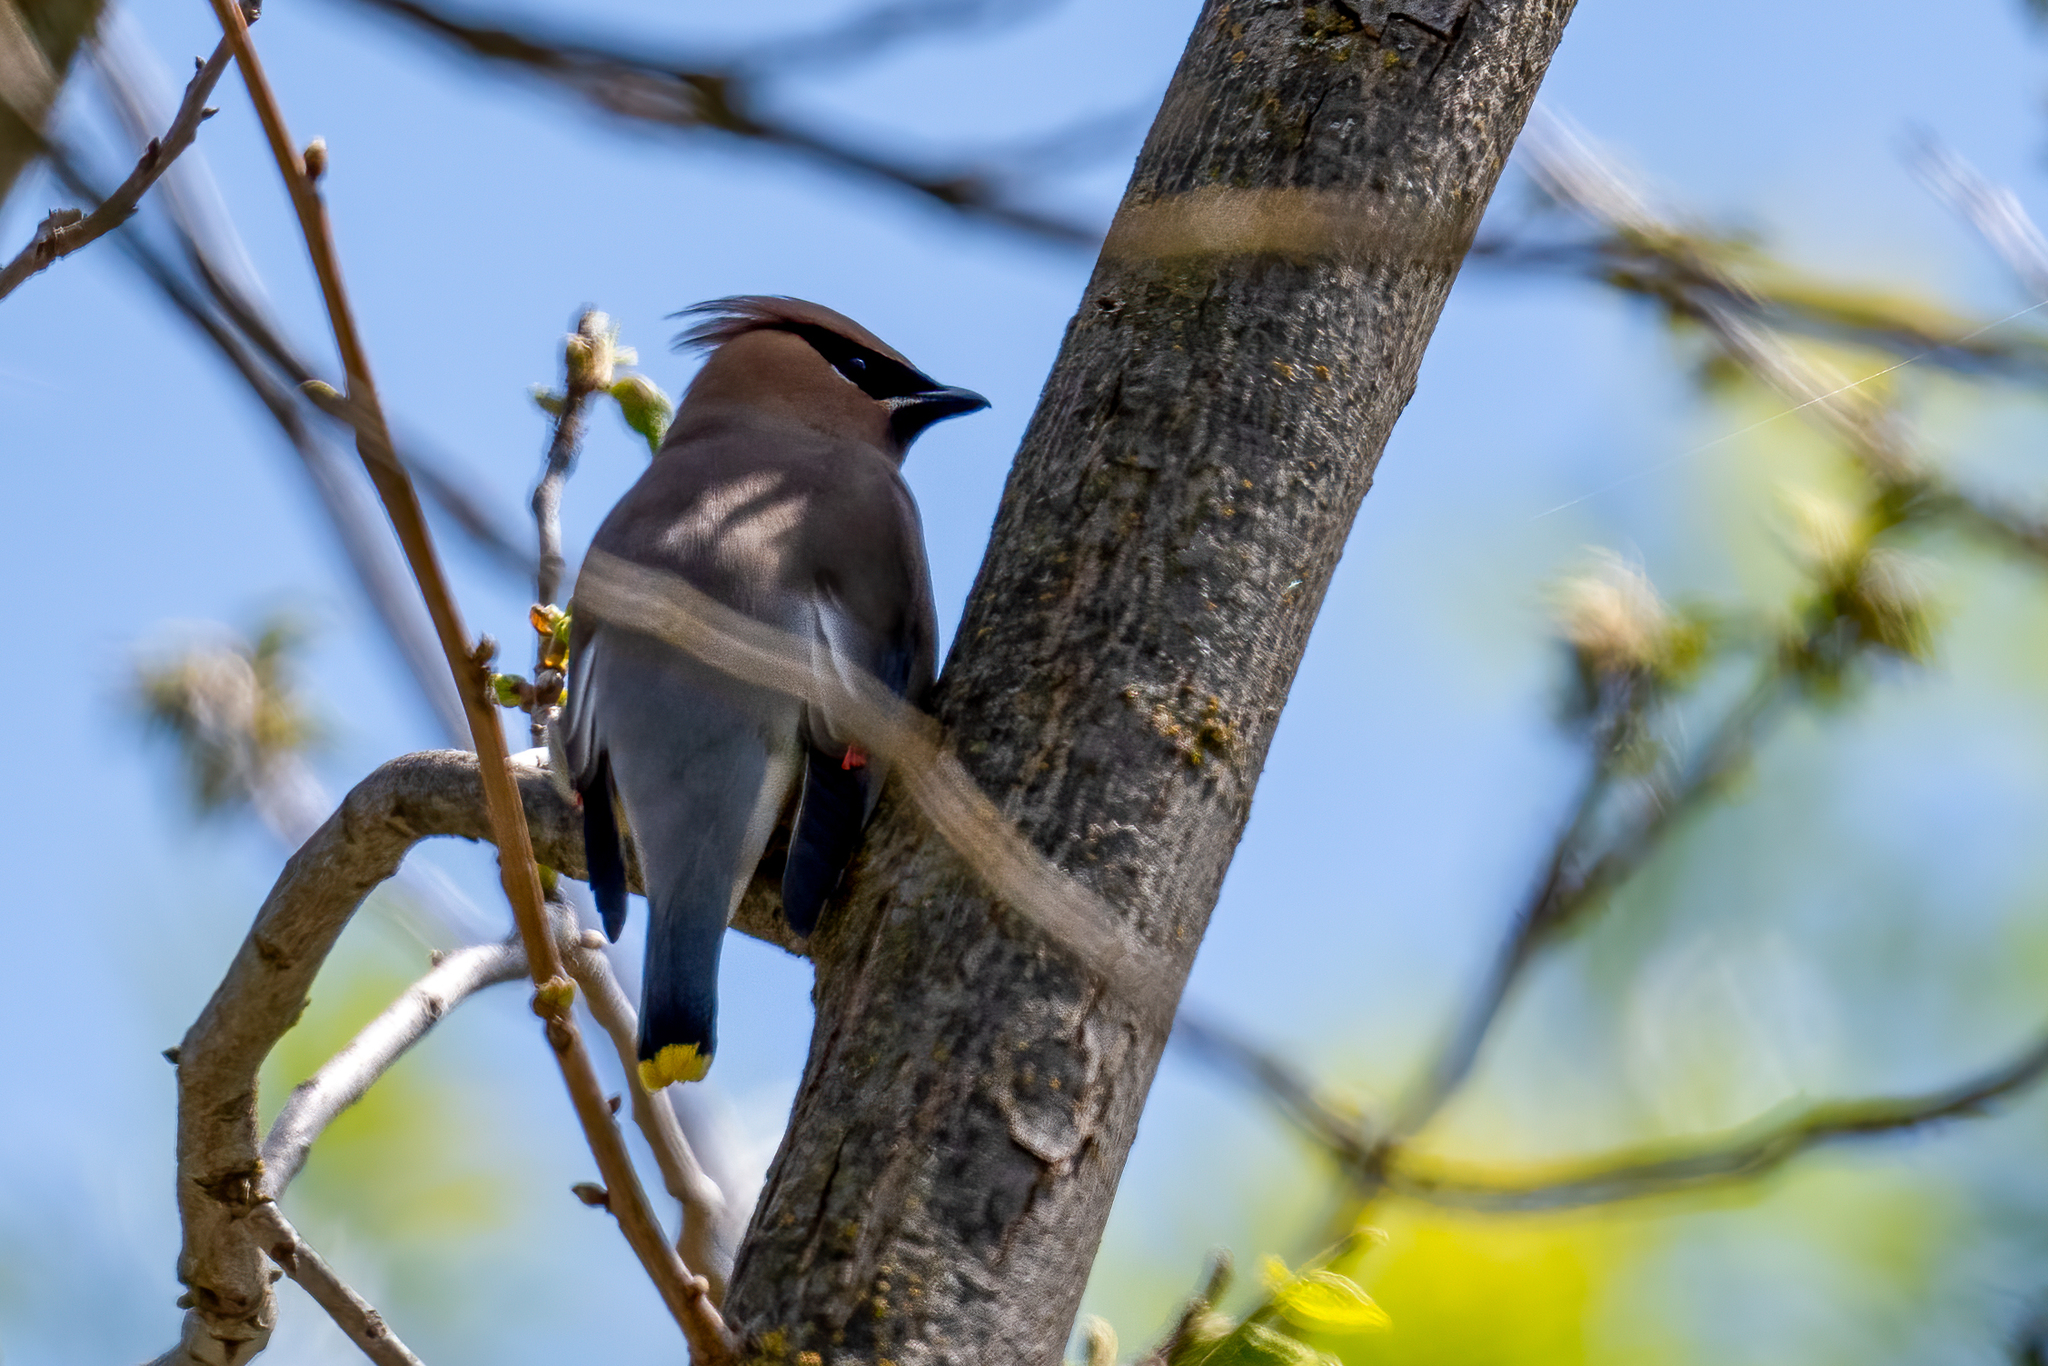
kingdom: Animalia
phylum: Chordata
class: Aves
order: Passeriformes
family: Bombycillidae
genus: Bombycilla
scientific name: Bombycilla cedrorum
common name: Cedar waxwing
